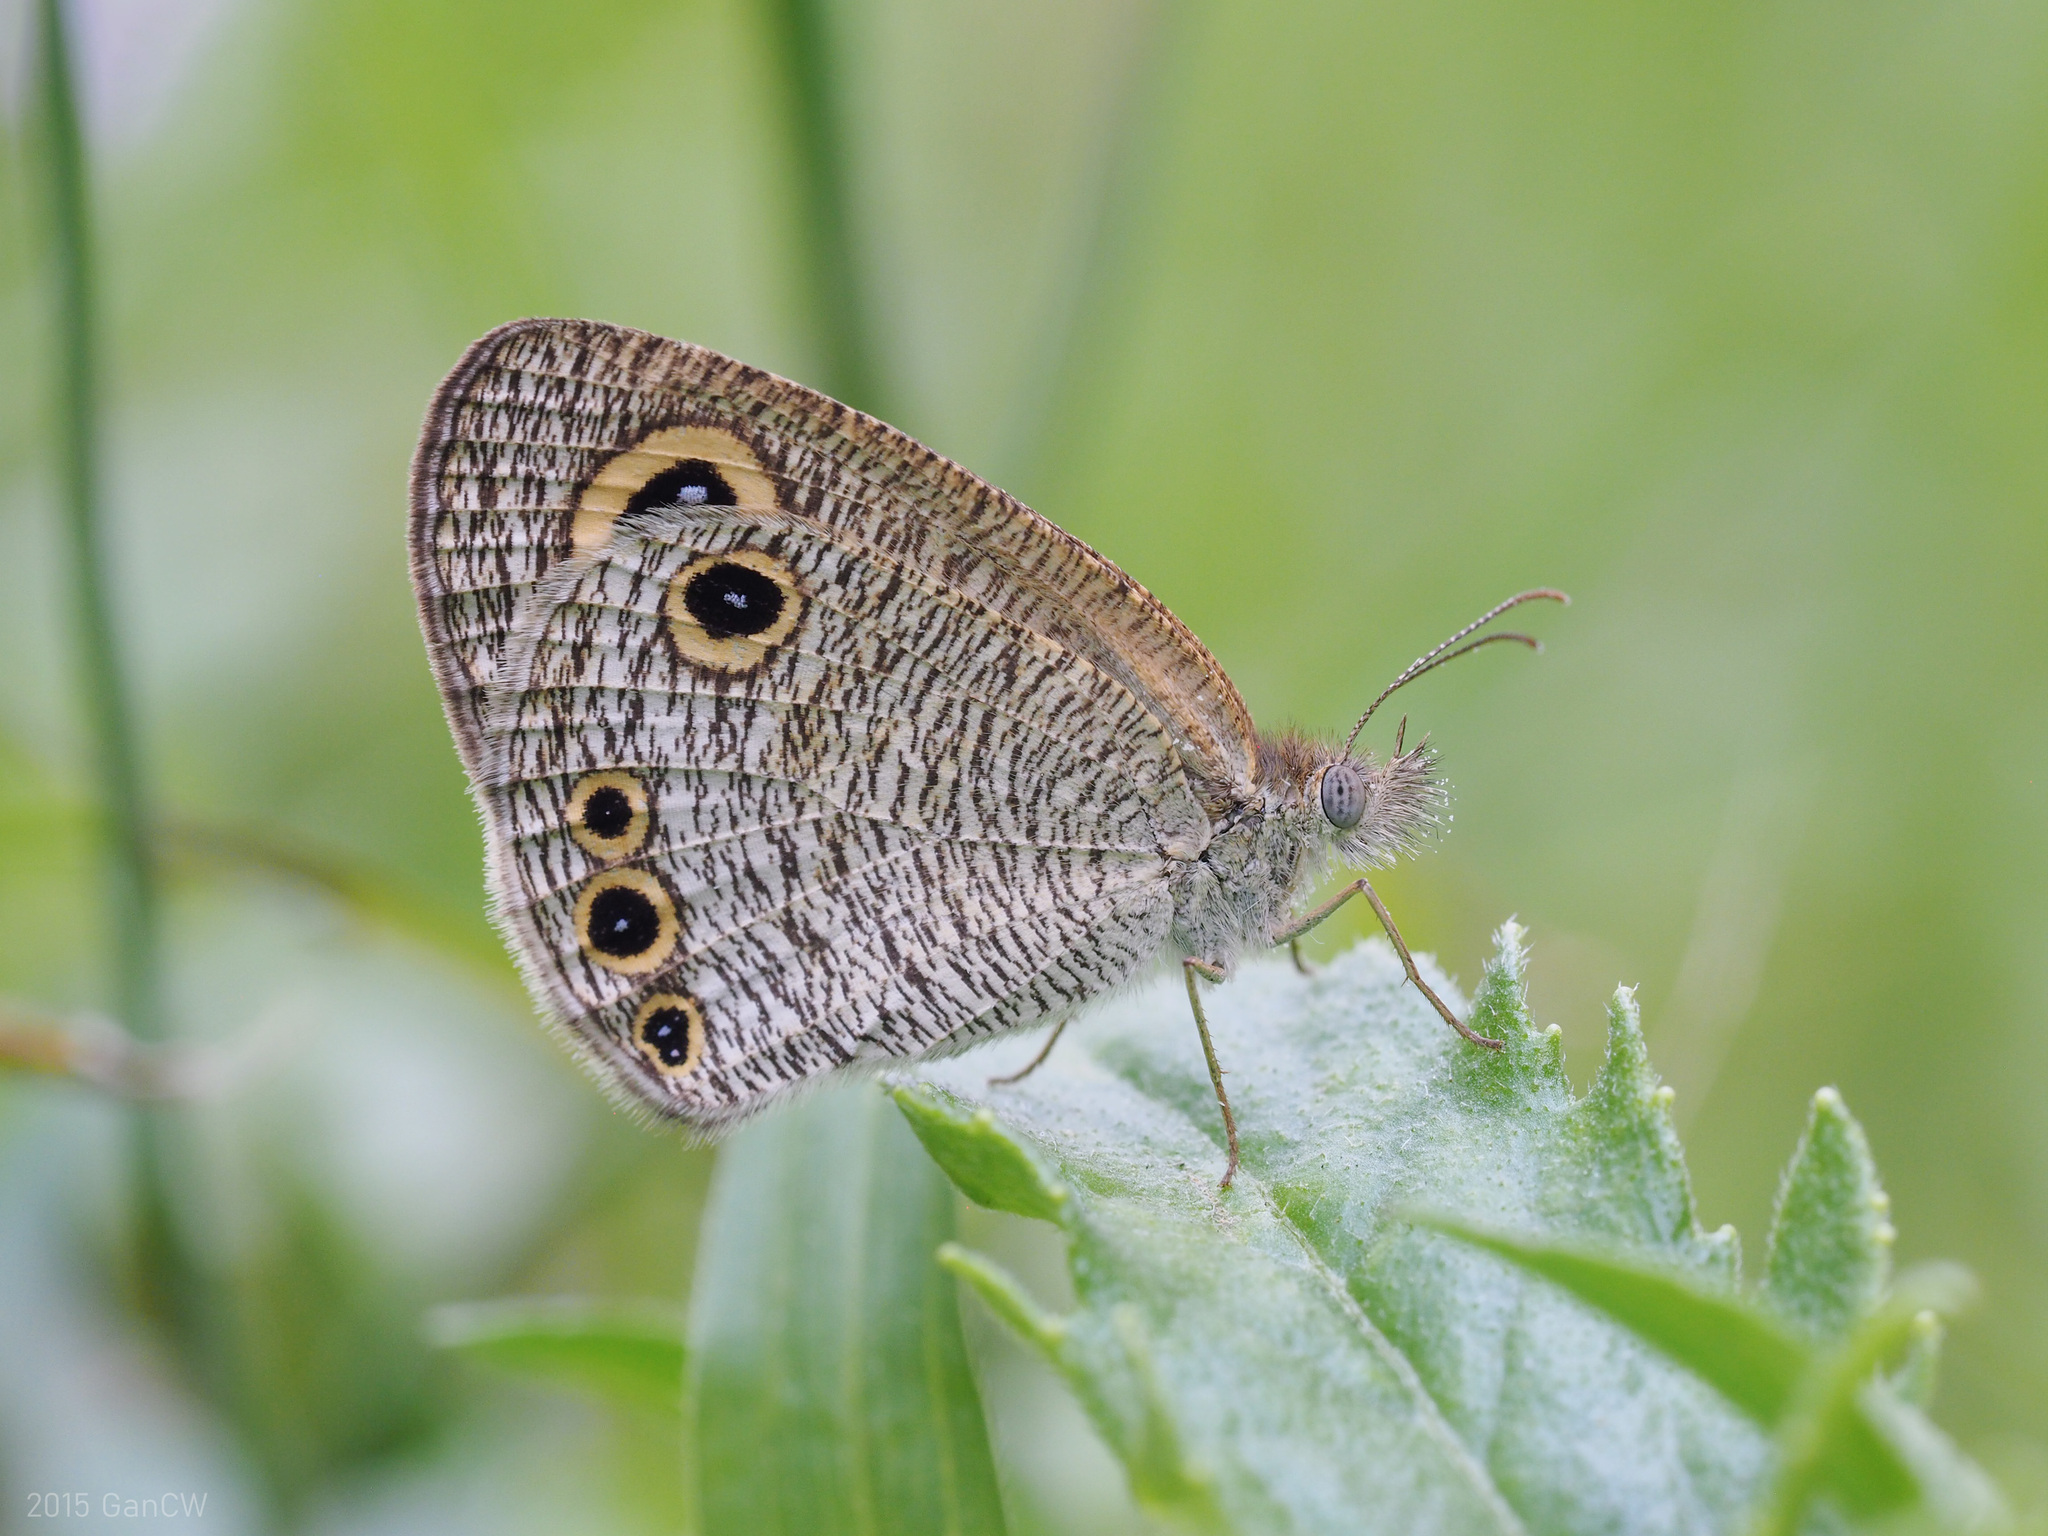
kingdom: Animalia
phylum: Arthropoda
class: Insecta
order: Lepidoptera
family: Nymphalidae
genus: Ypthima
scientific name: Ypthima huebneri
